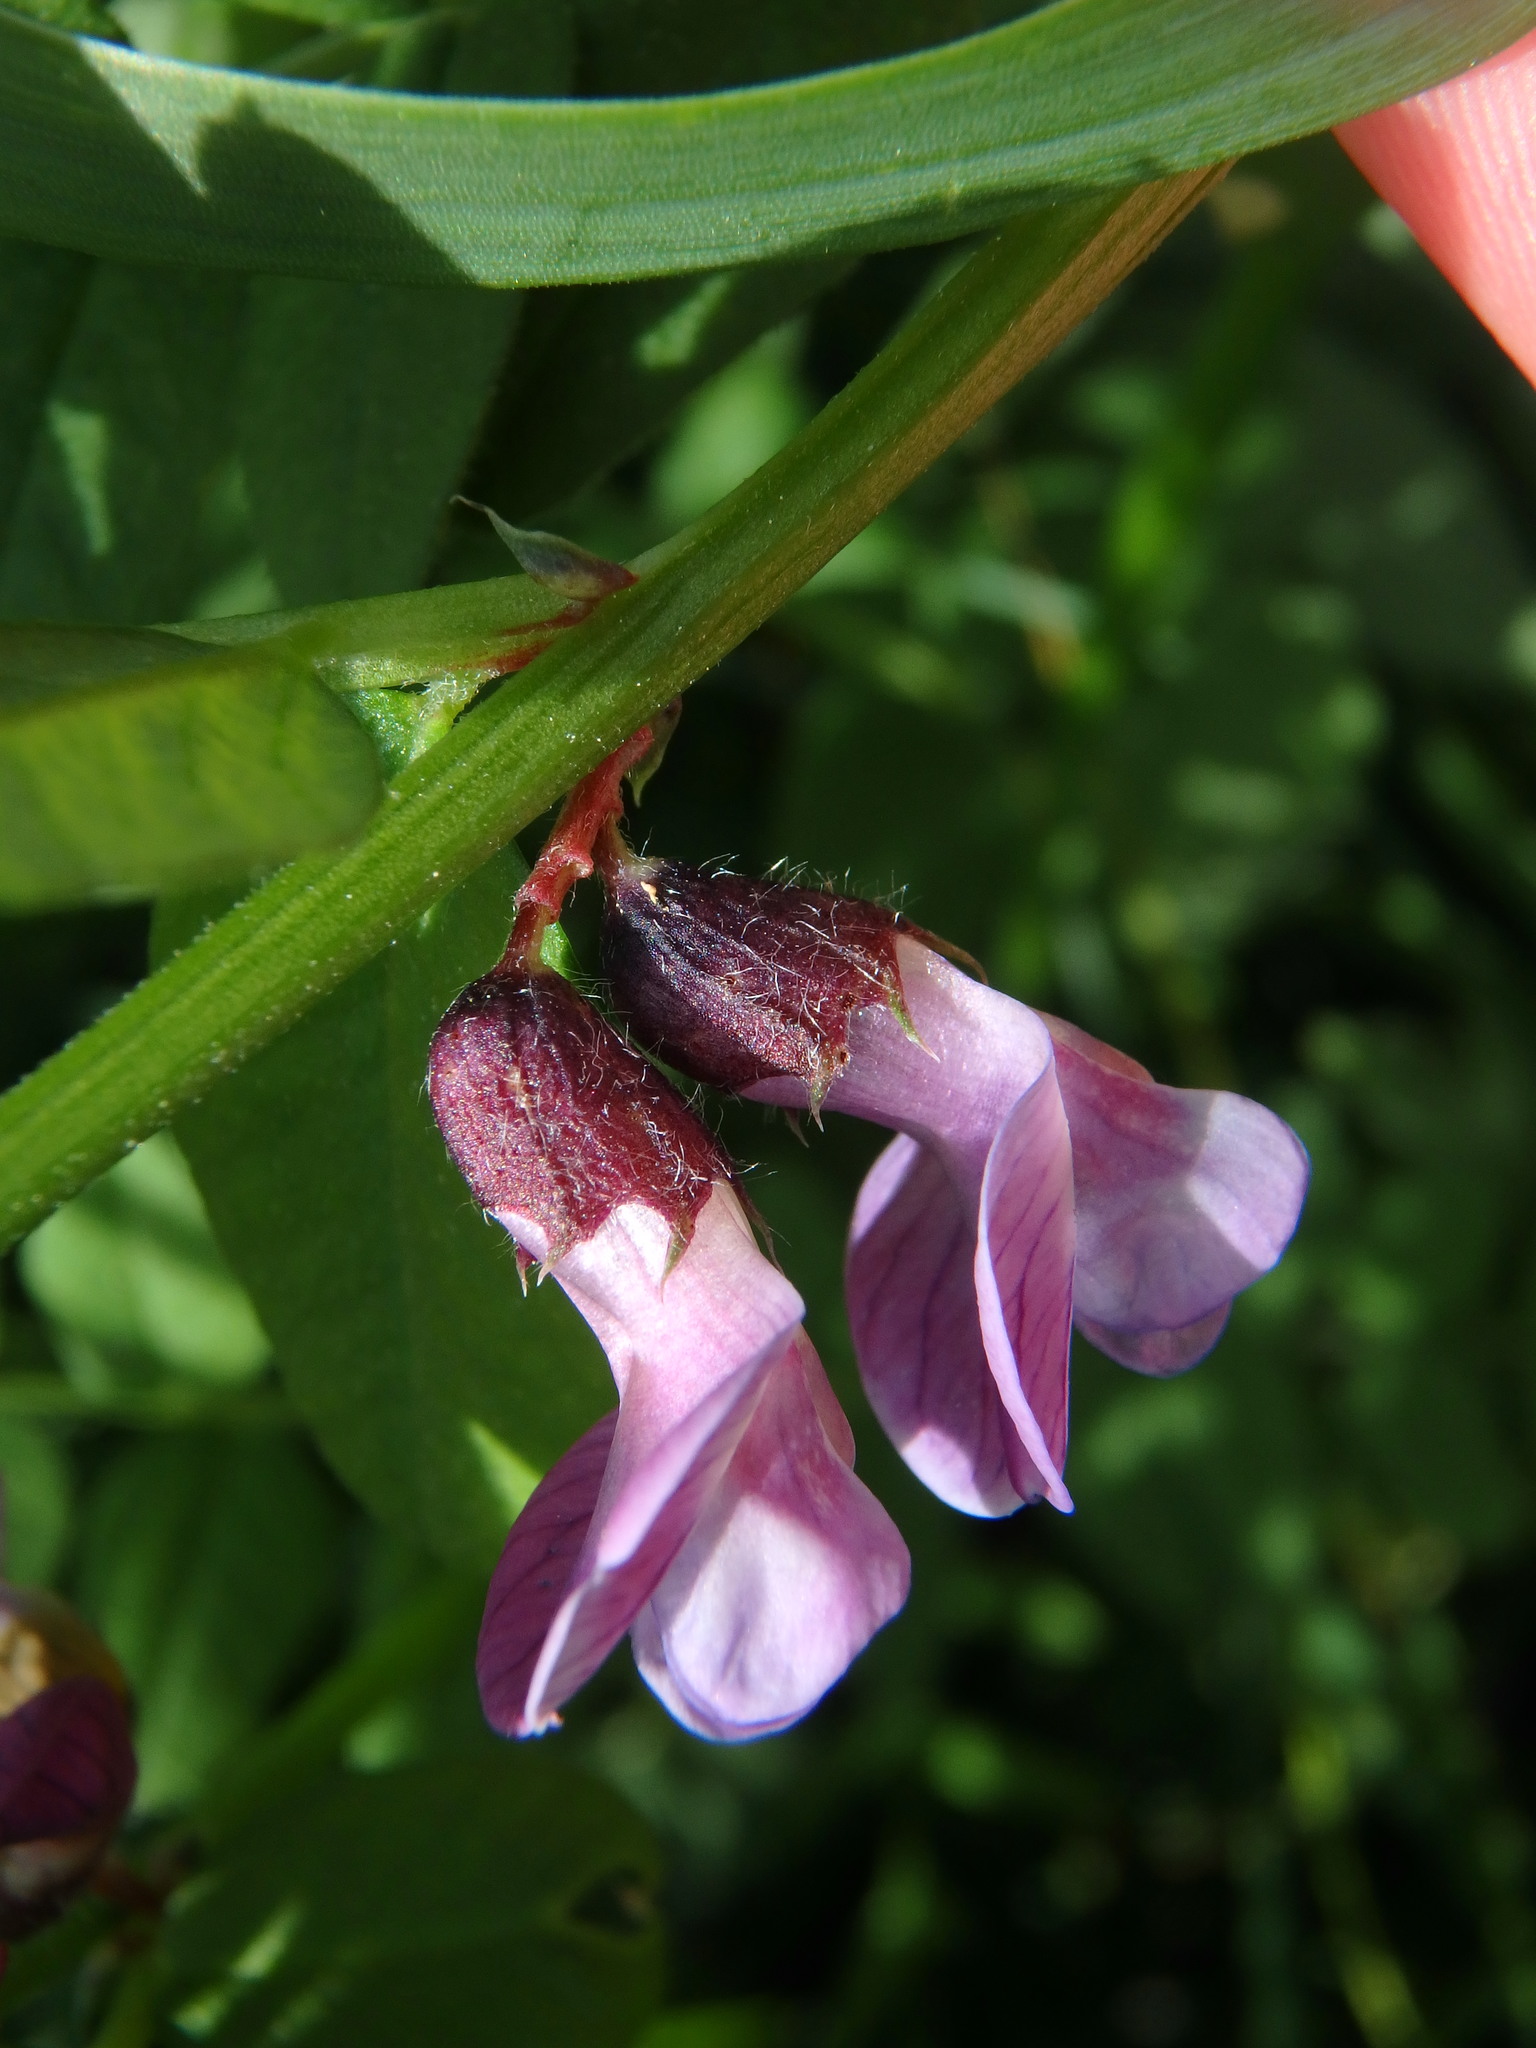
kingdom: Plantae
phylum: Tracheophyta
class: Magnoliopsida
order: Fabales
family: Fabaceae
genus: Vicia
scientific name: Vicia sepium
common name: Bush vetch
